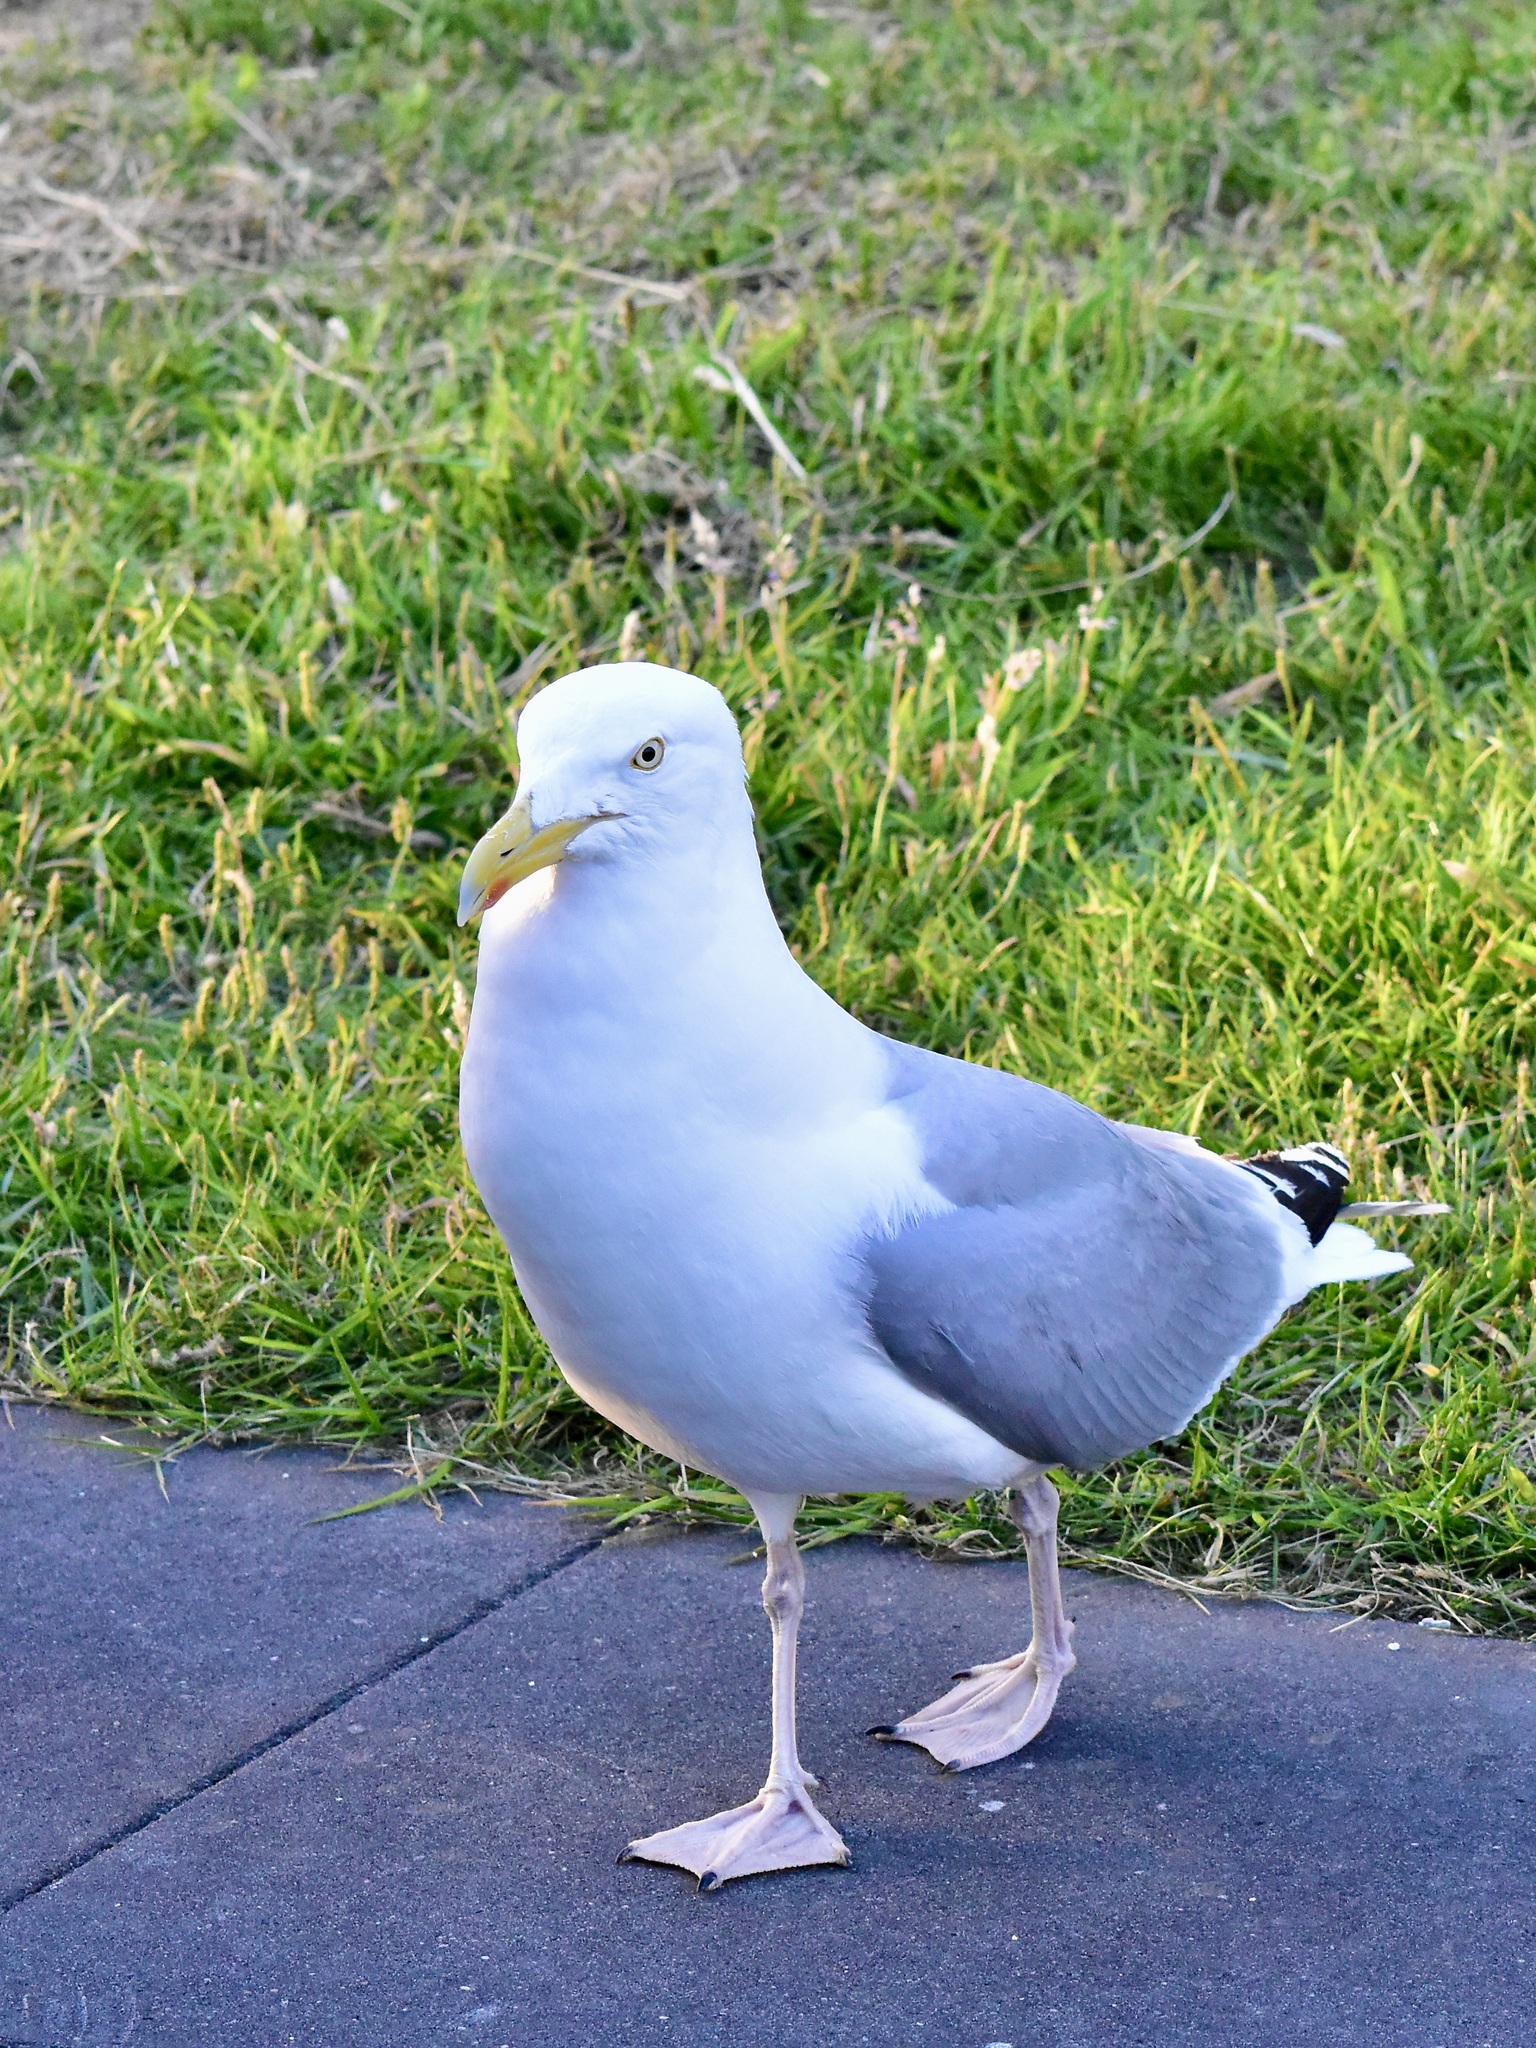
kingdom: Animalia
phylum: Chordata
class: Aves
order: Charadriiformes
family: Laridae
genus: Larus
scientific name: Larus argentatus
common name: Herring gull
